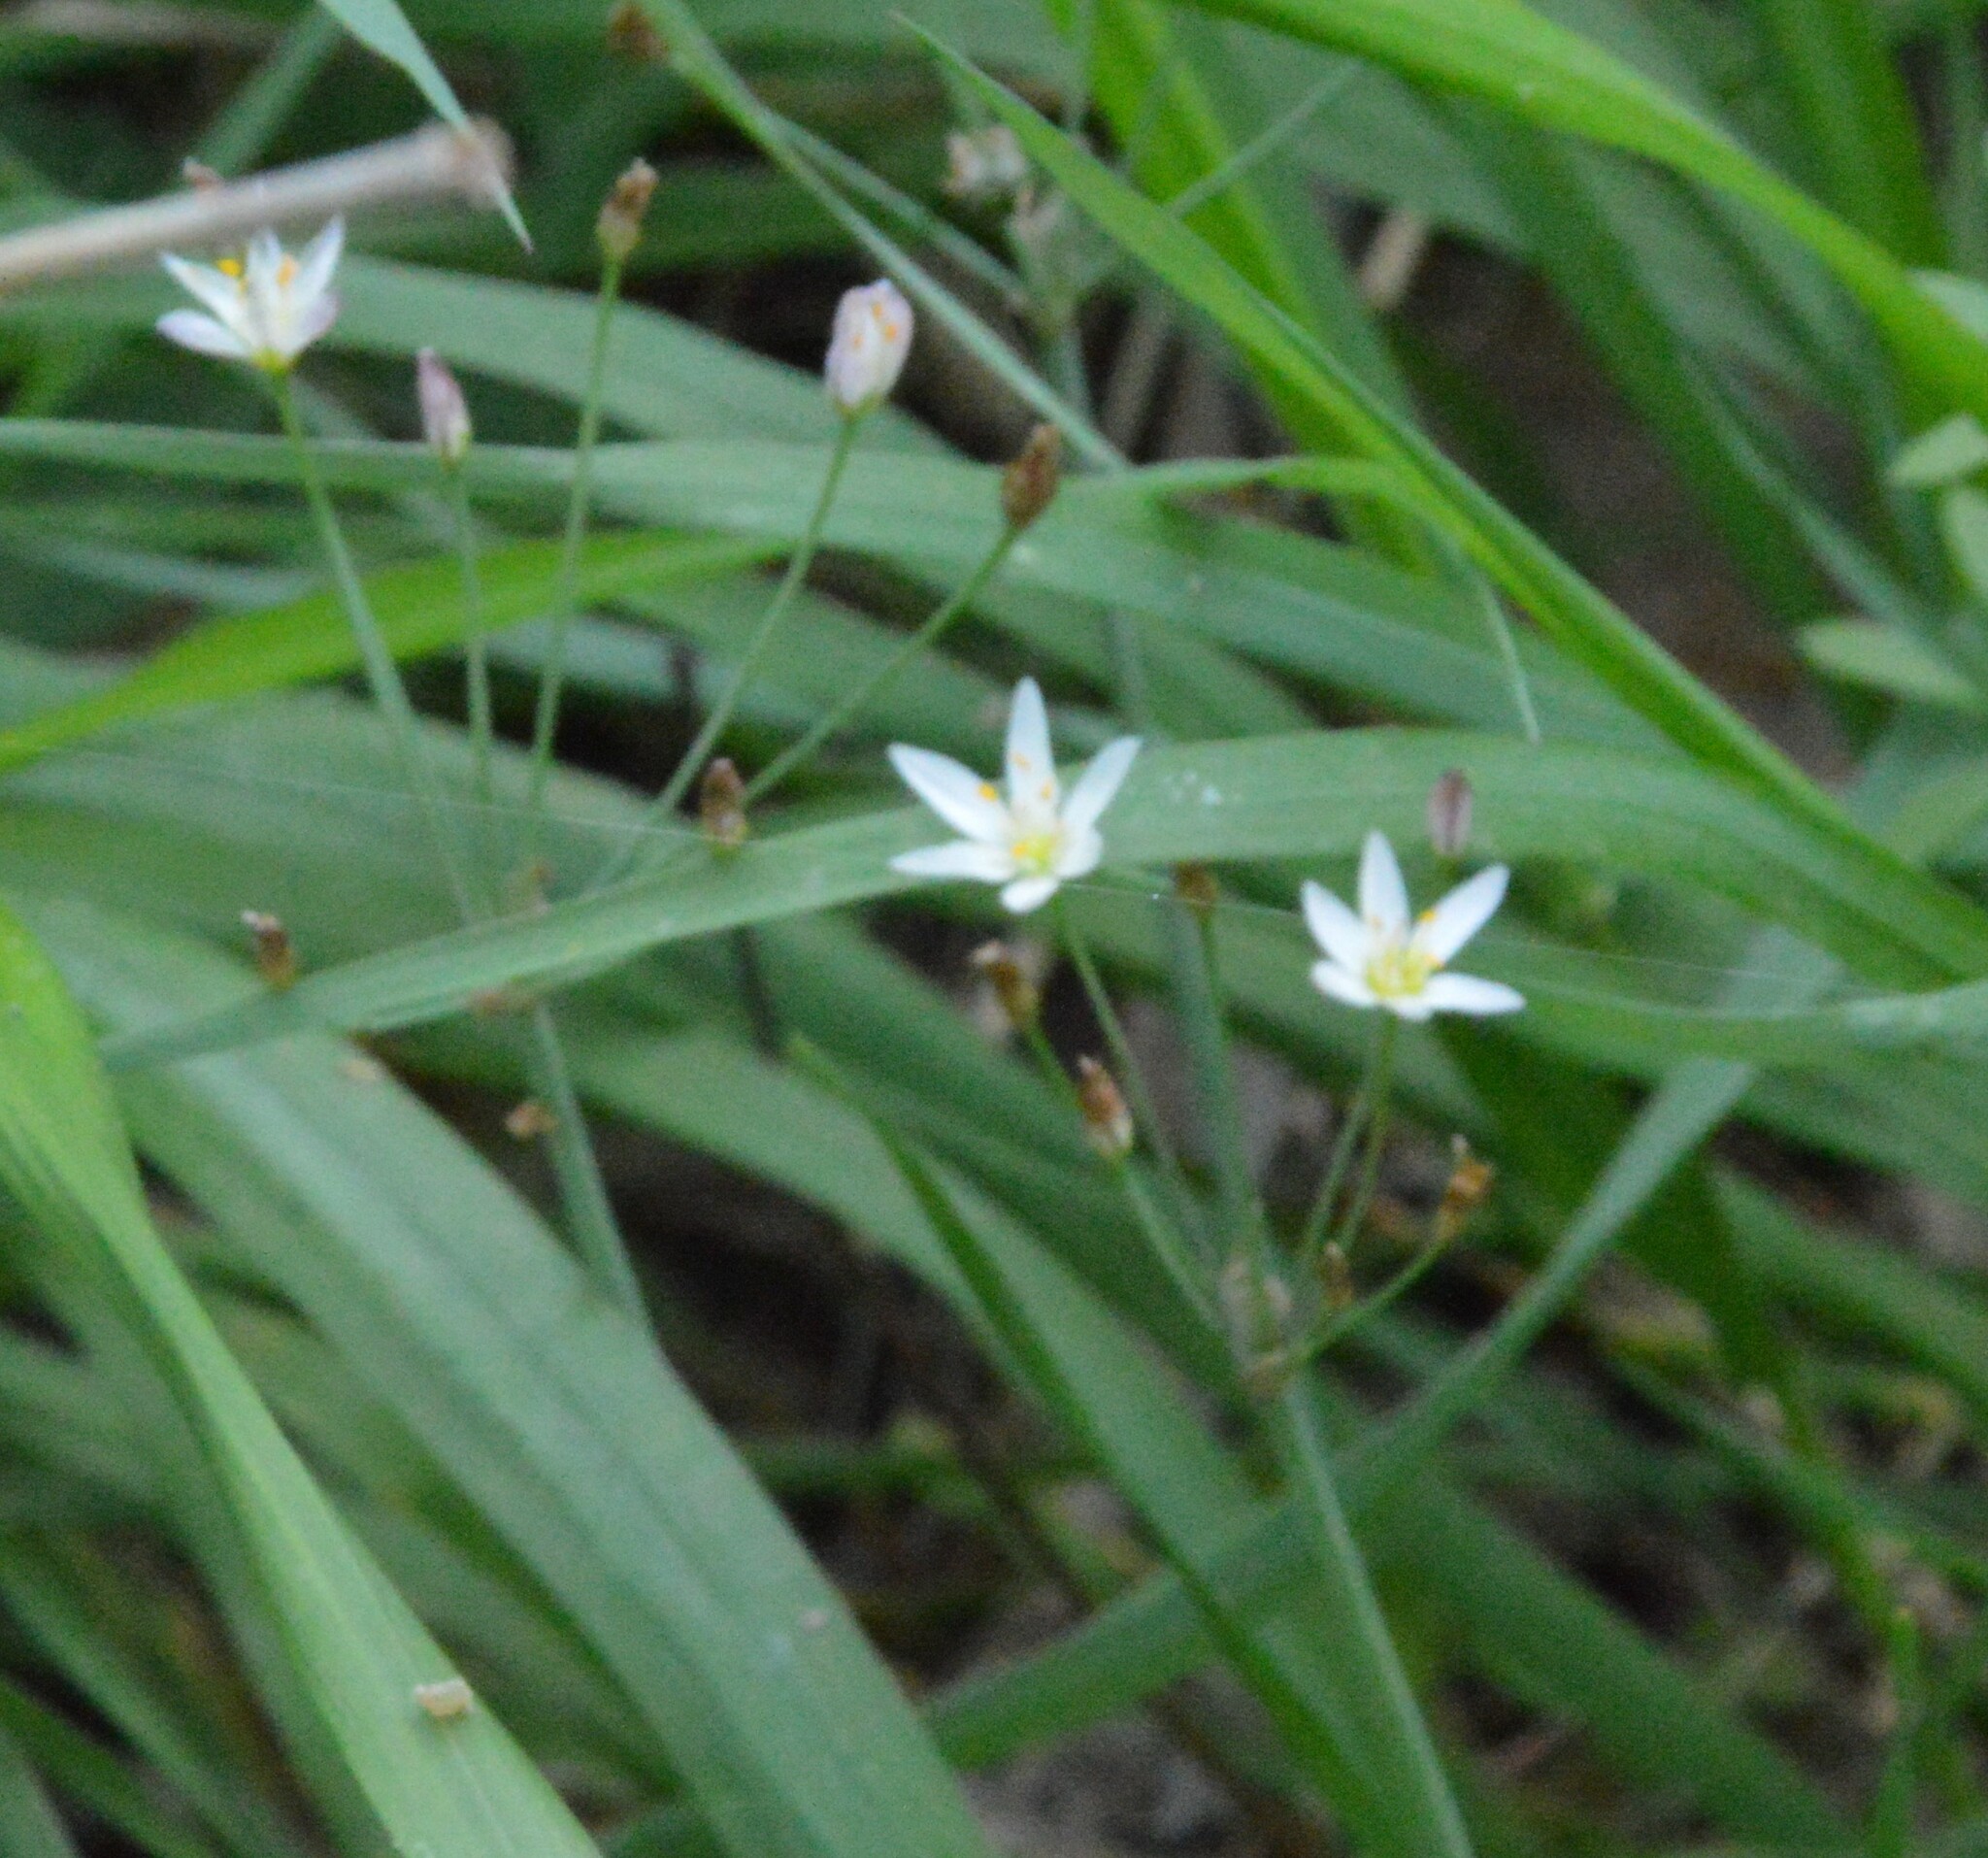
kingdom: Plantae
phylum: Tracheophyta
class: Liliopsida
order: Asparagales
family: Amaryllidaceae
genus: Nothoscordum
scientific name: Nothoscordum bivalve
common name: Crow-poison
